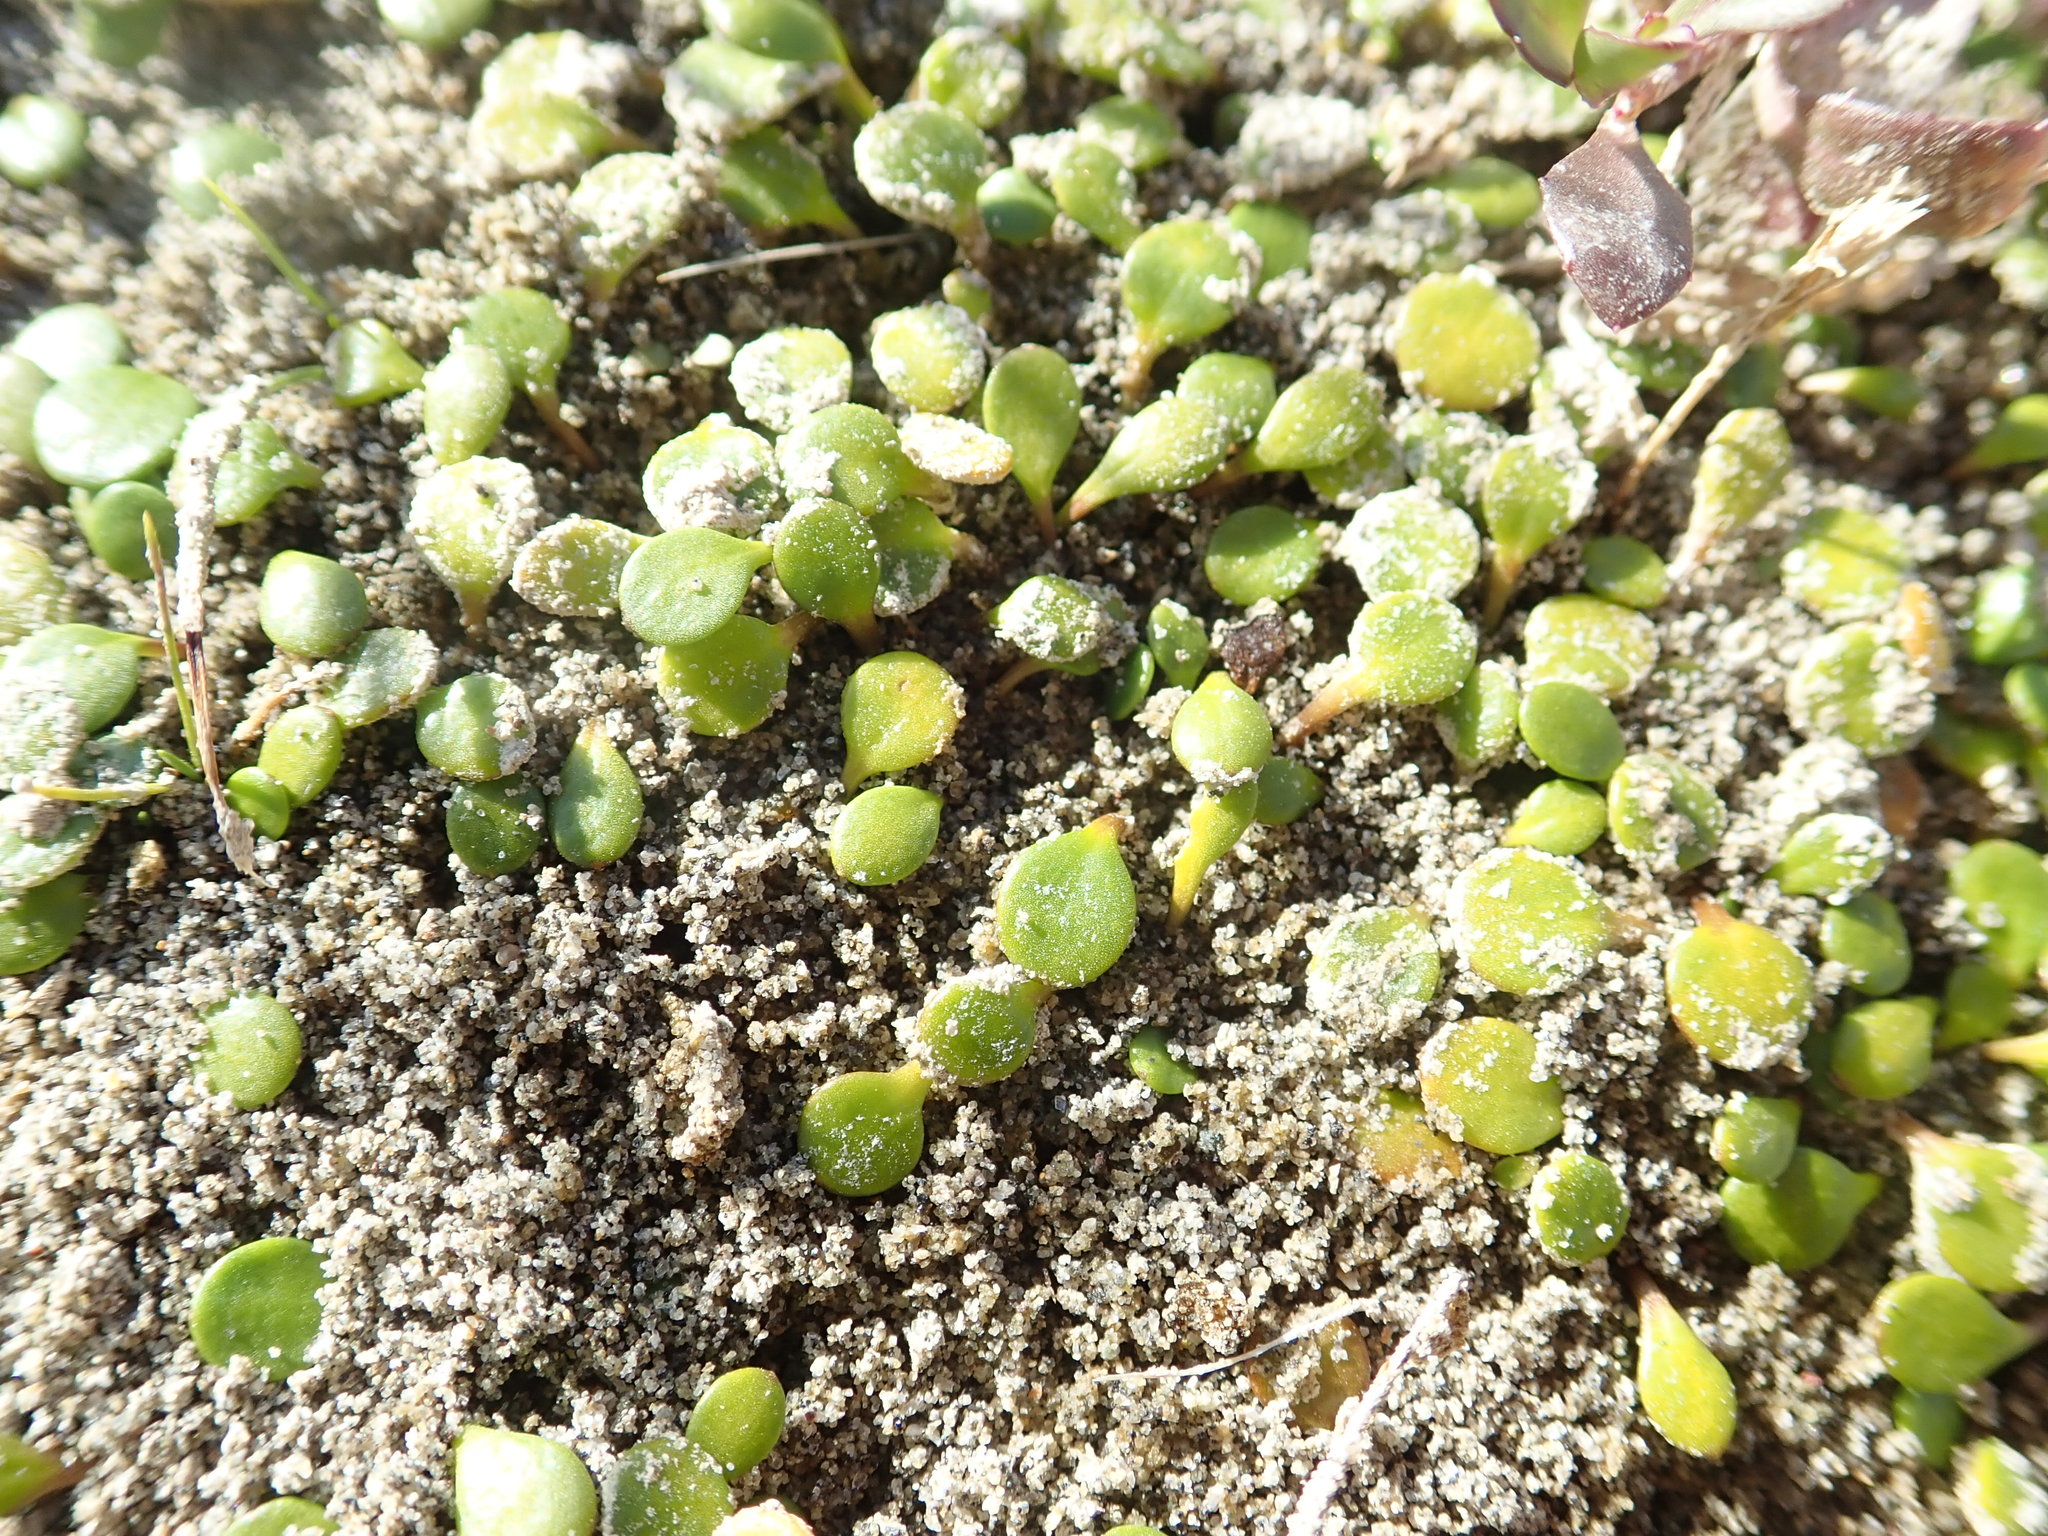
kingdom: Plantae
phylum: Tracheophyta
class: Magnoliopsida
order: Asterales
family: Goodeniaceae
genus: Goodenia
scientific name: Goodenia heenanii
